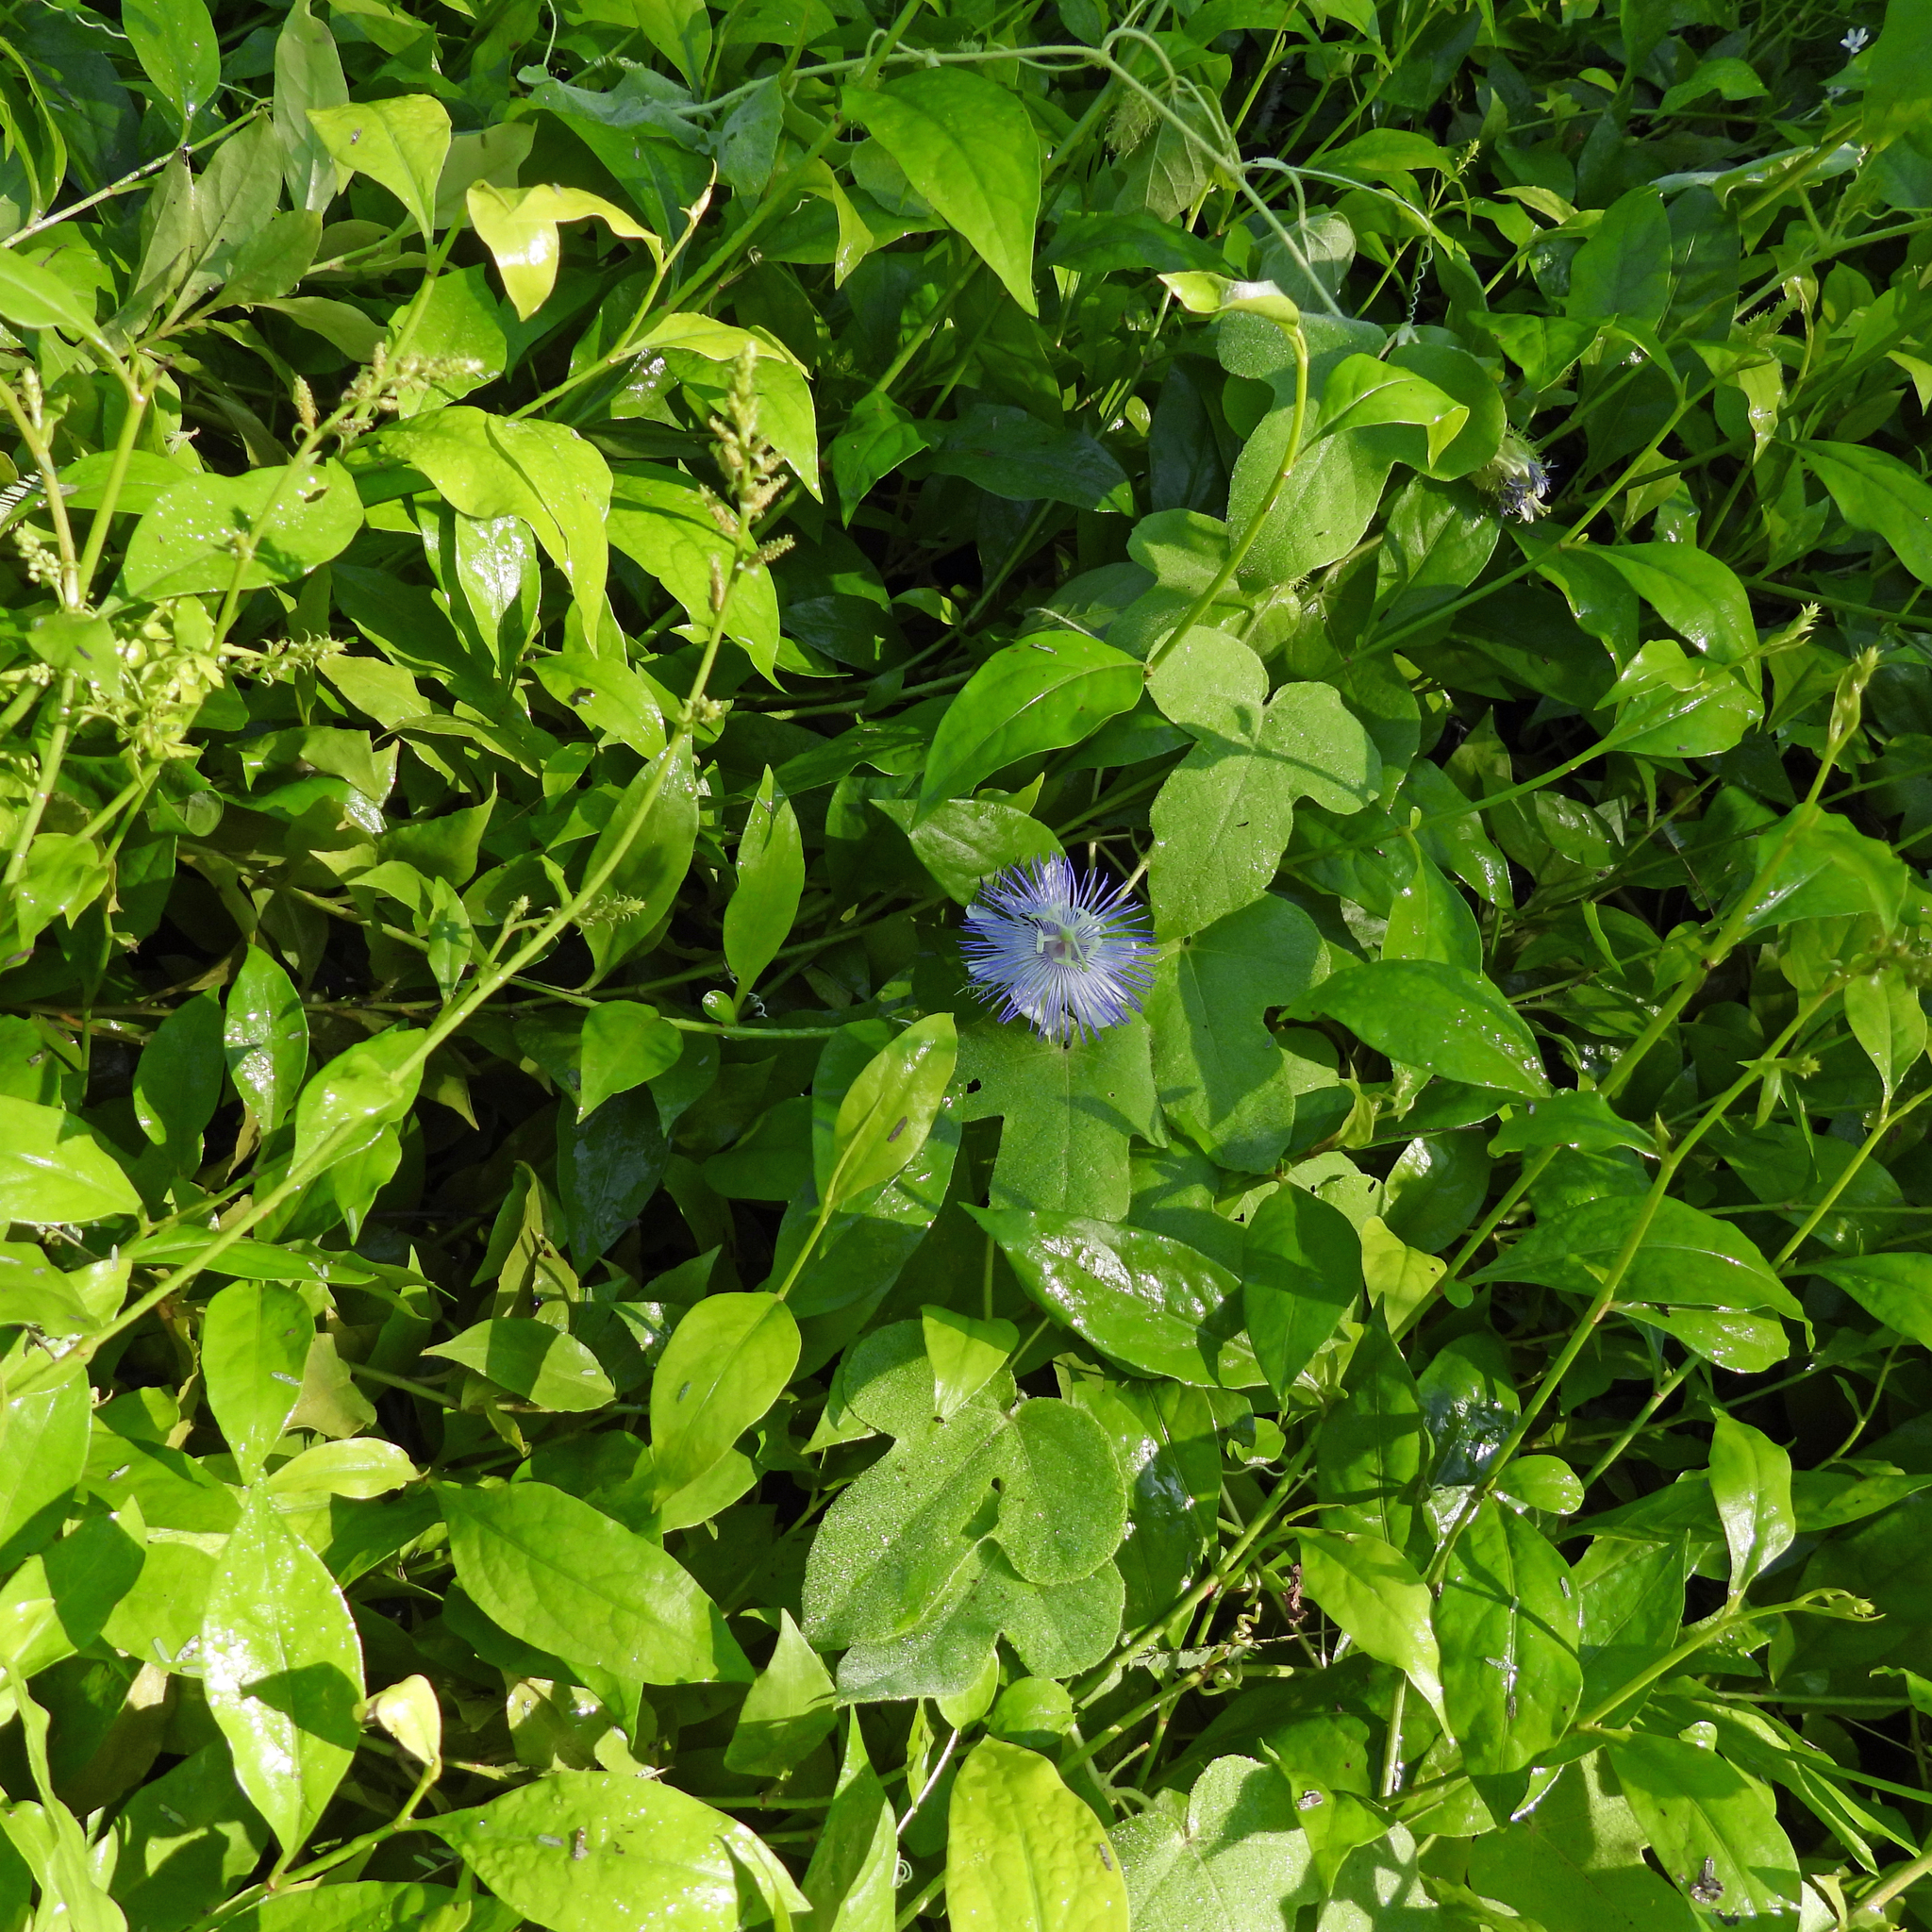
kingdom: Plantae
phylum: Tracheophyta
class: Magnoliopsida
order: Malpighiales
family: Passifloraceae
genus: Passiflora
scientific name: Passiflora foetida
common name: Fetid passionflower
